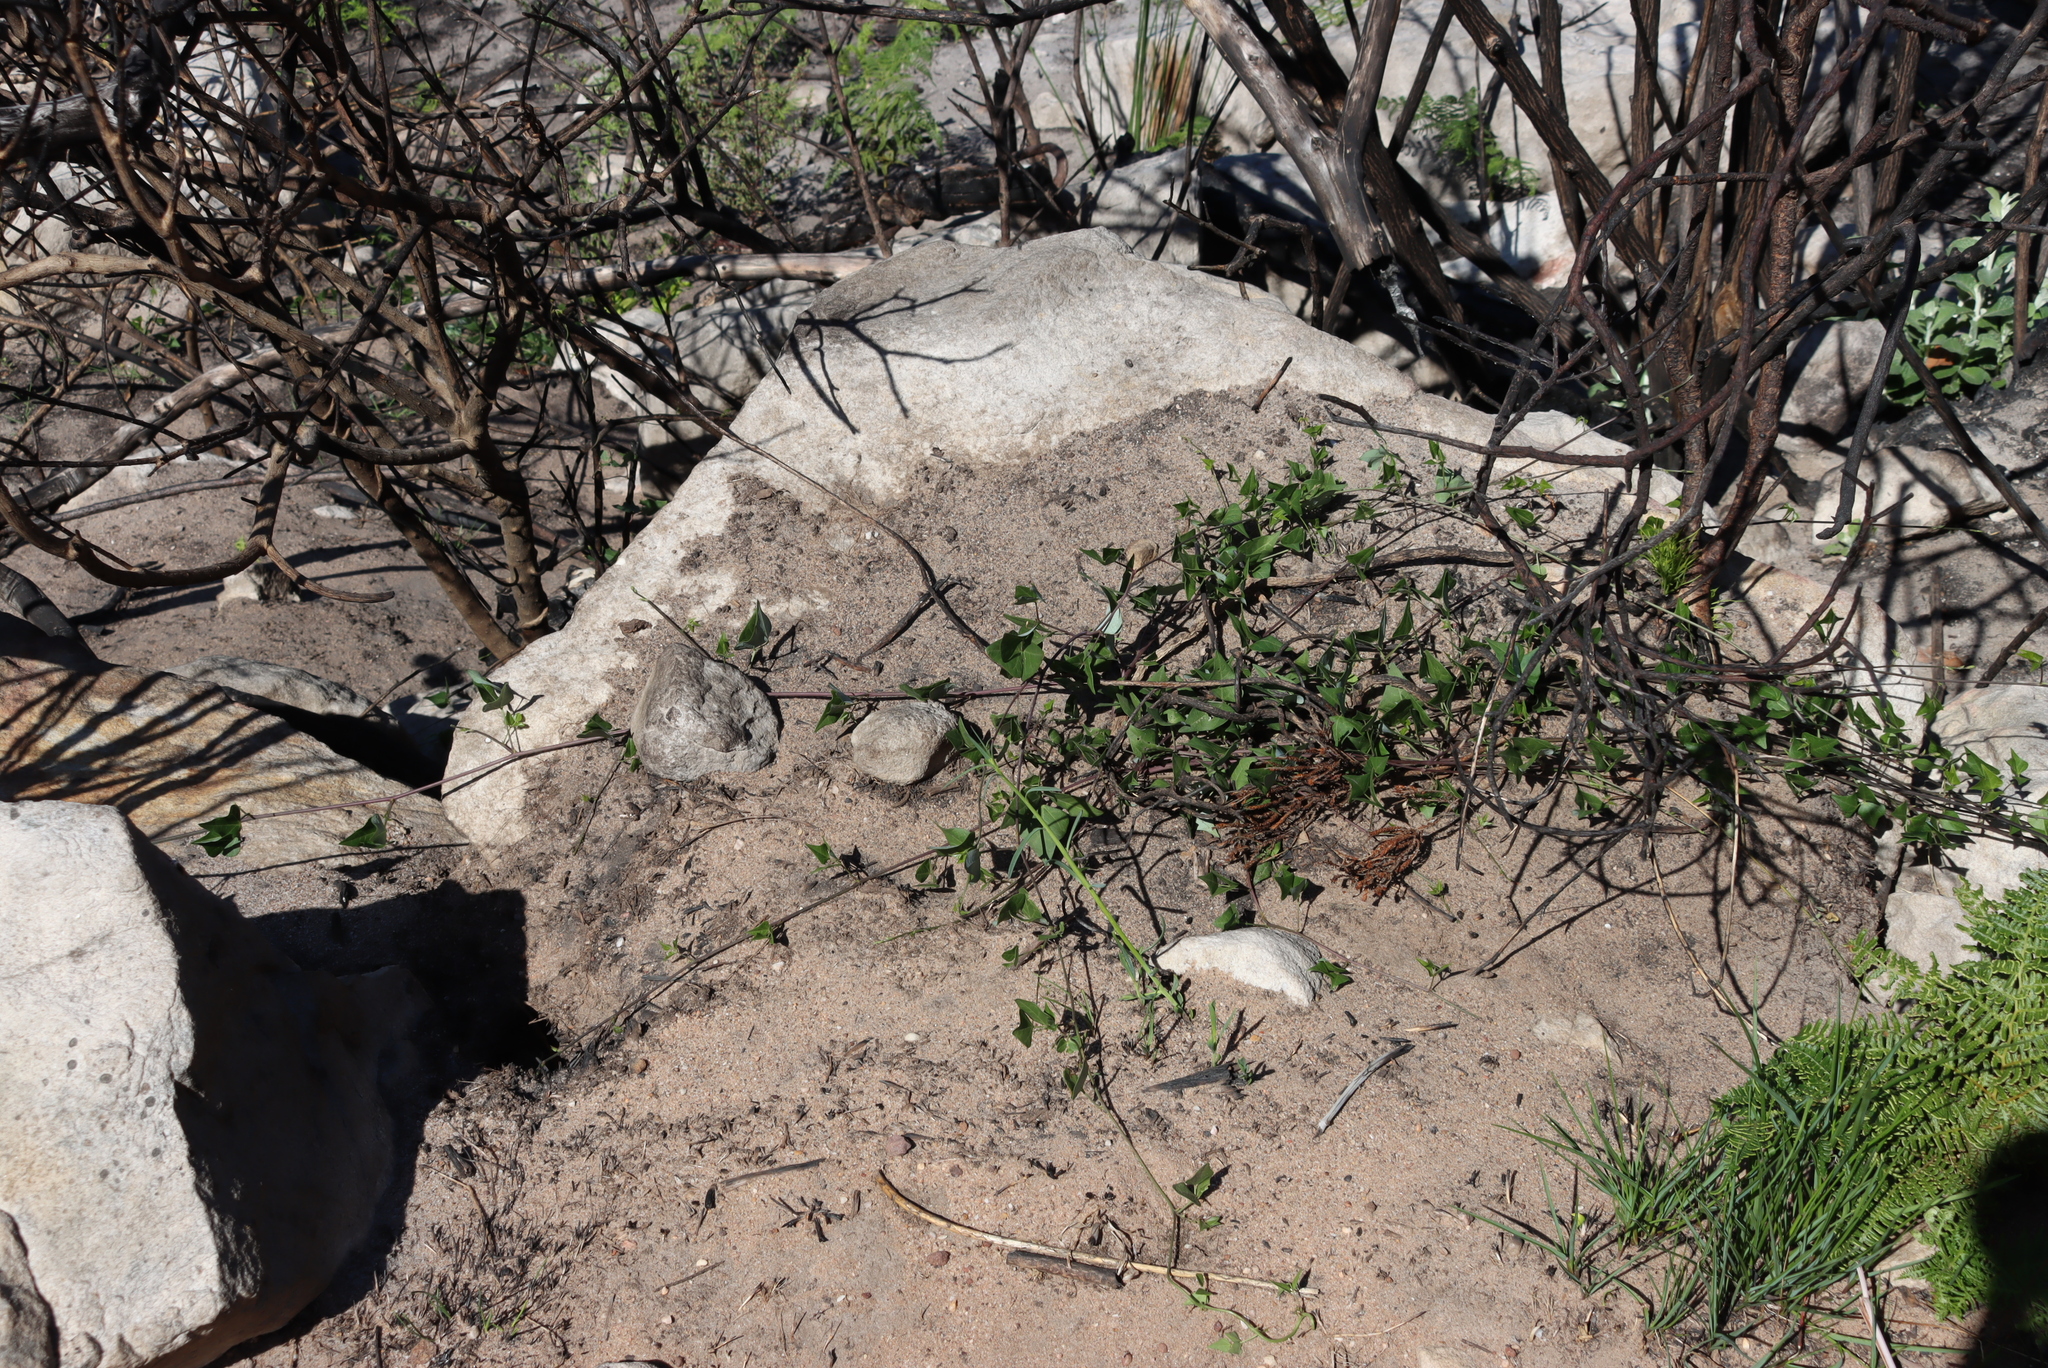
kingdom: Plantae
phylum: Tracheophyta
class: Magnoliopsida
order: Fabales
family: Fabaceae
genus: Dipogon
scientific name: Dipogon lignosus
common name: Okie bean
